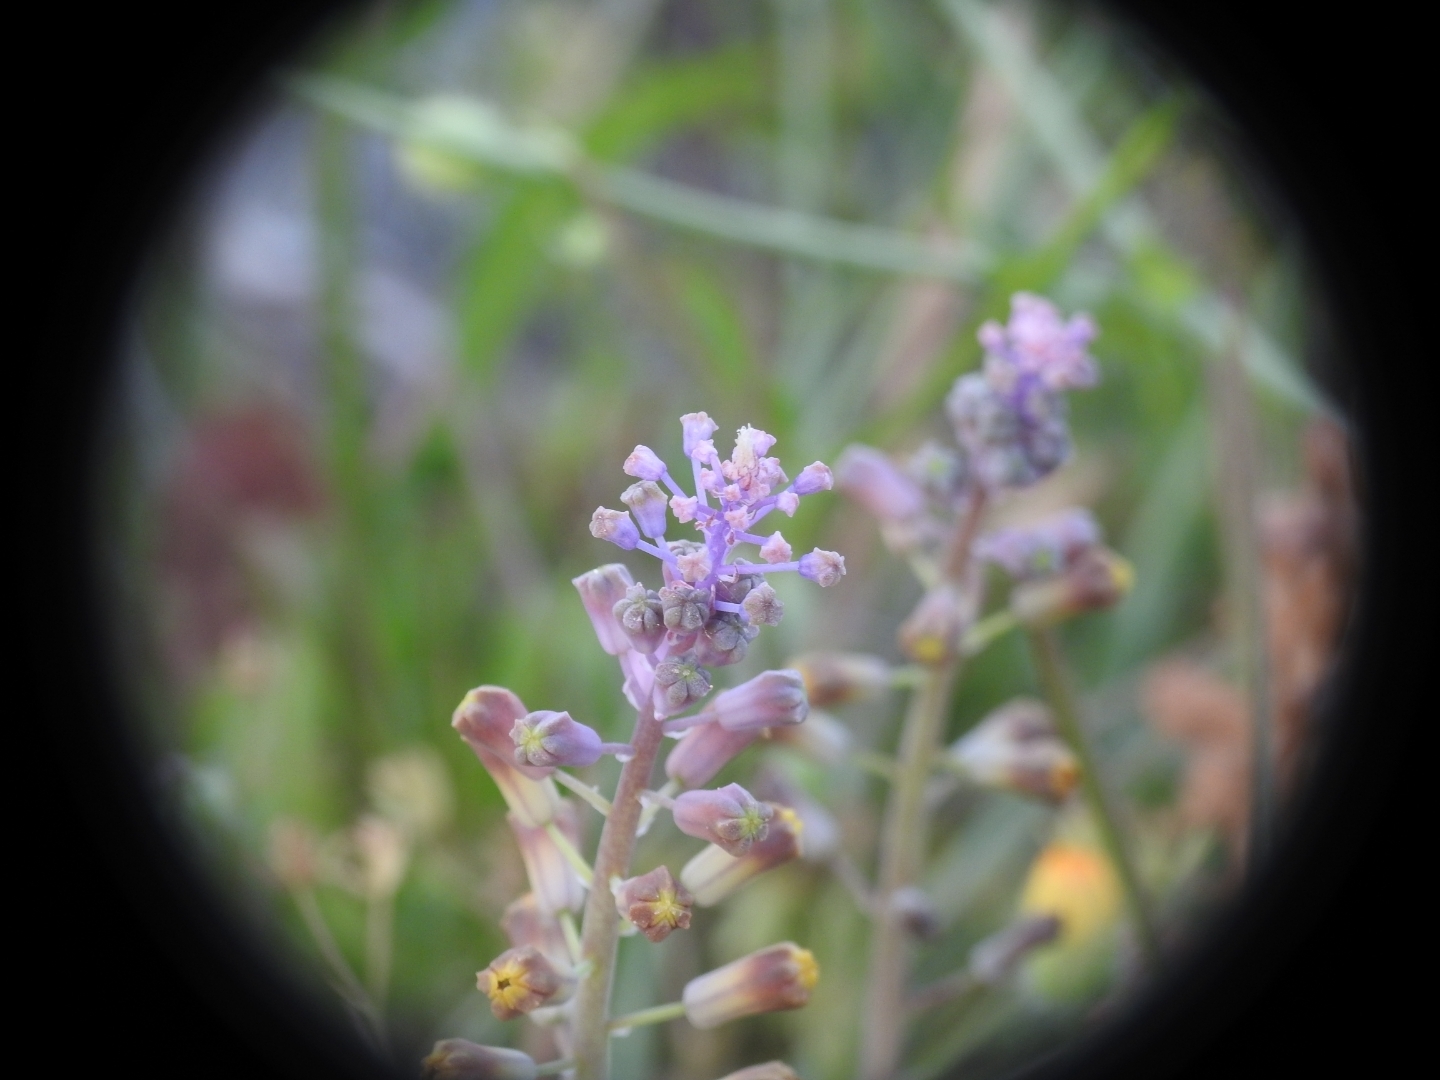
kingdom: Plantae
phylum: Tracheophyta
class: Liliopsida
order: Asparagales
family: Asparagaceae
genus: Muscari
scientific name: Muscari spreitzenhoferi
